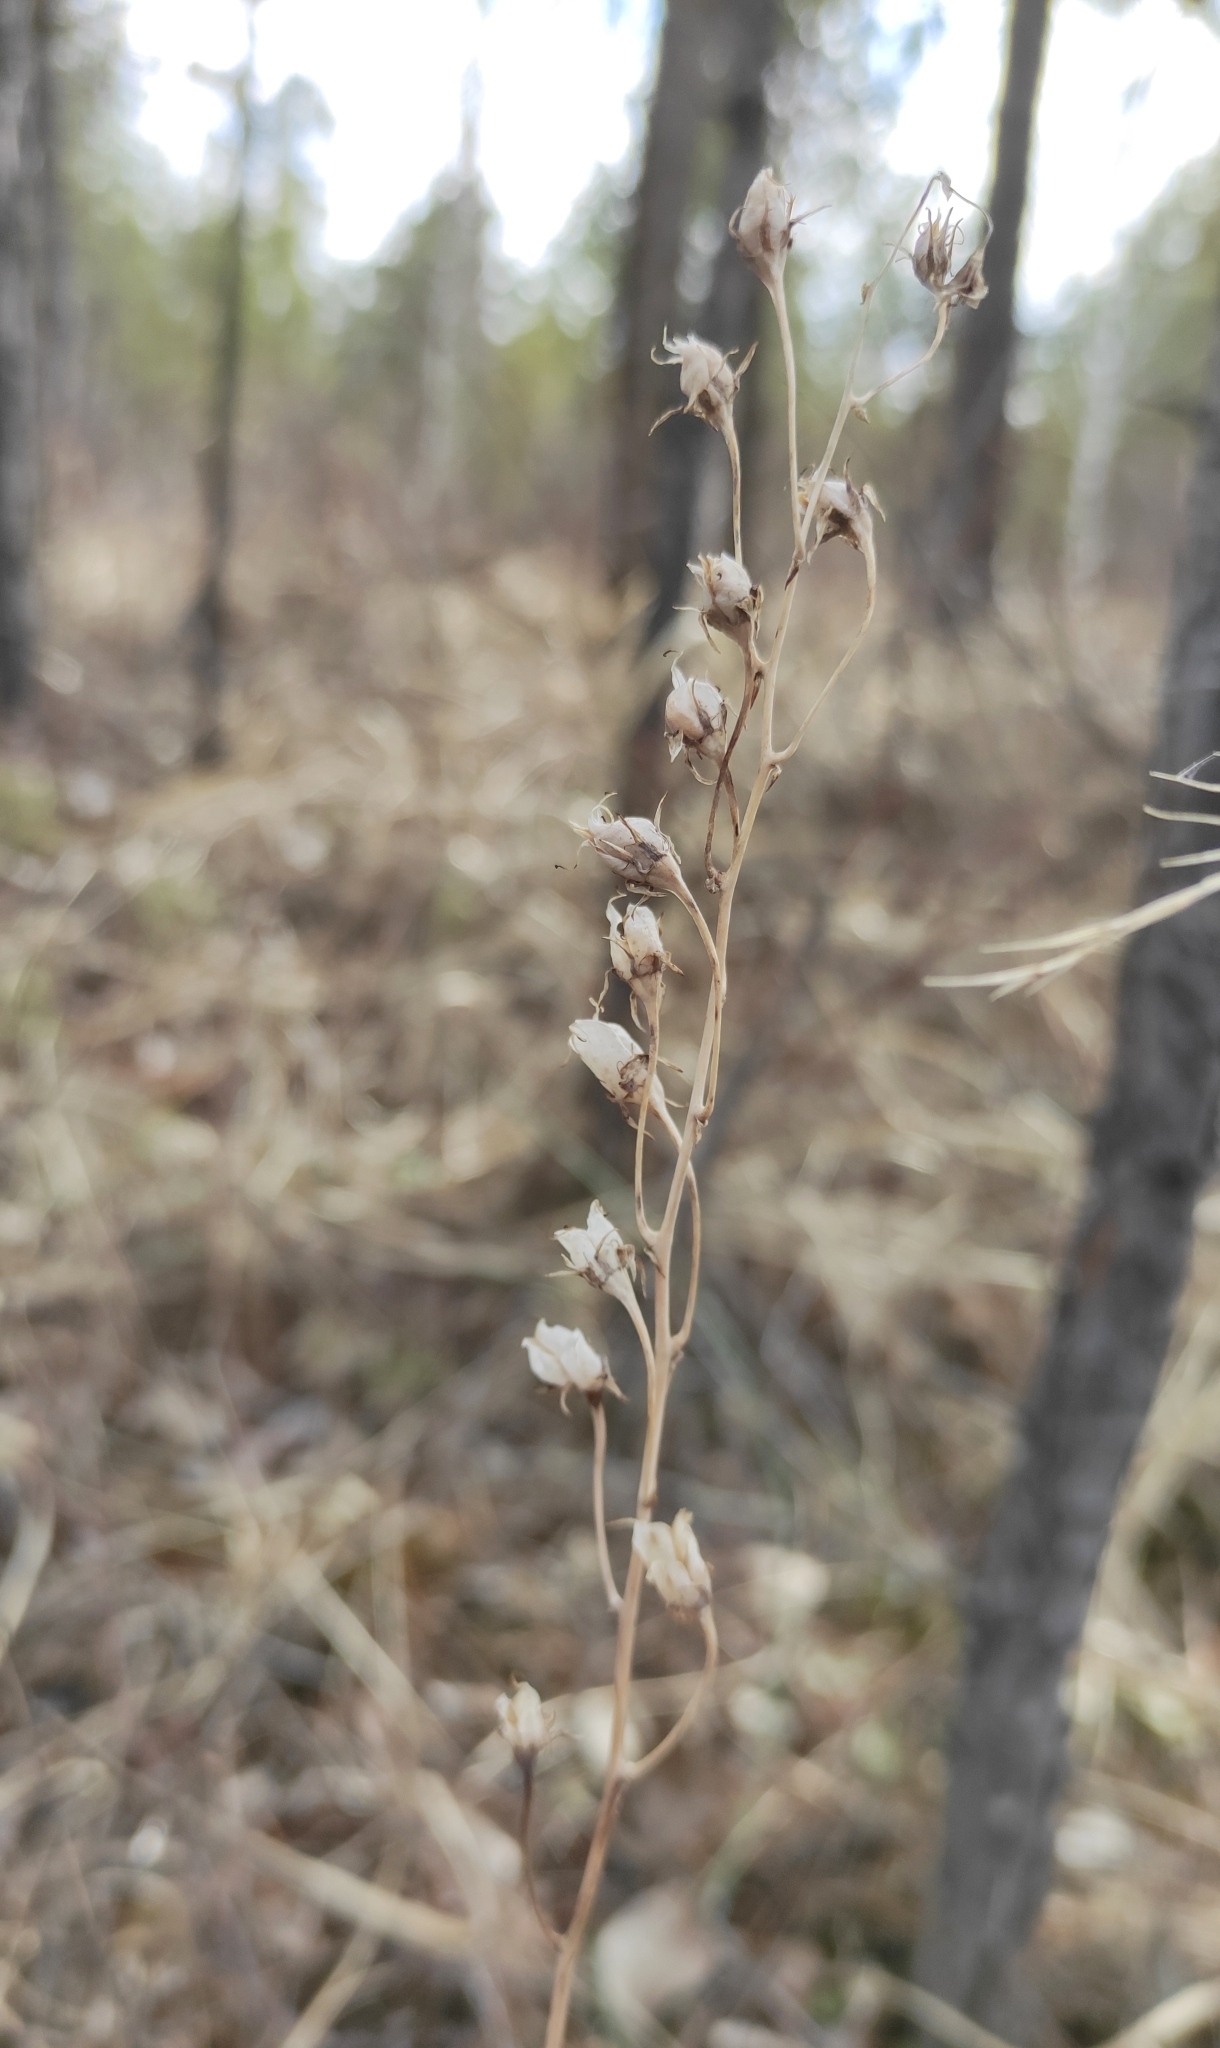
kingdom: Plantae
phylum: Tracheophyta
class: Liliopsida
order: Liliales
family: Melanthiaceae
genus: Anticlea
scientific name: Anticlea sibirica
